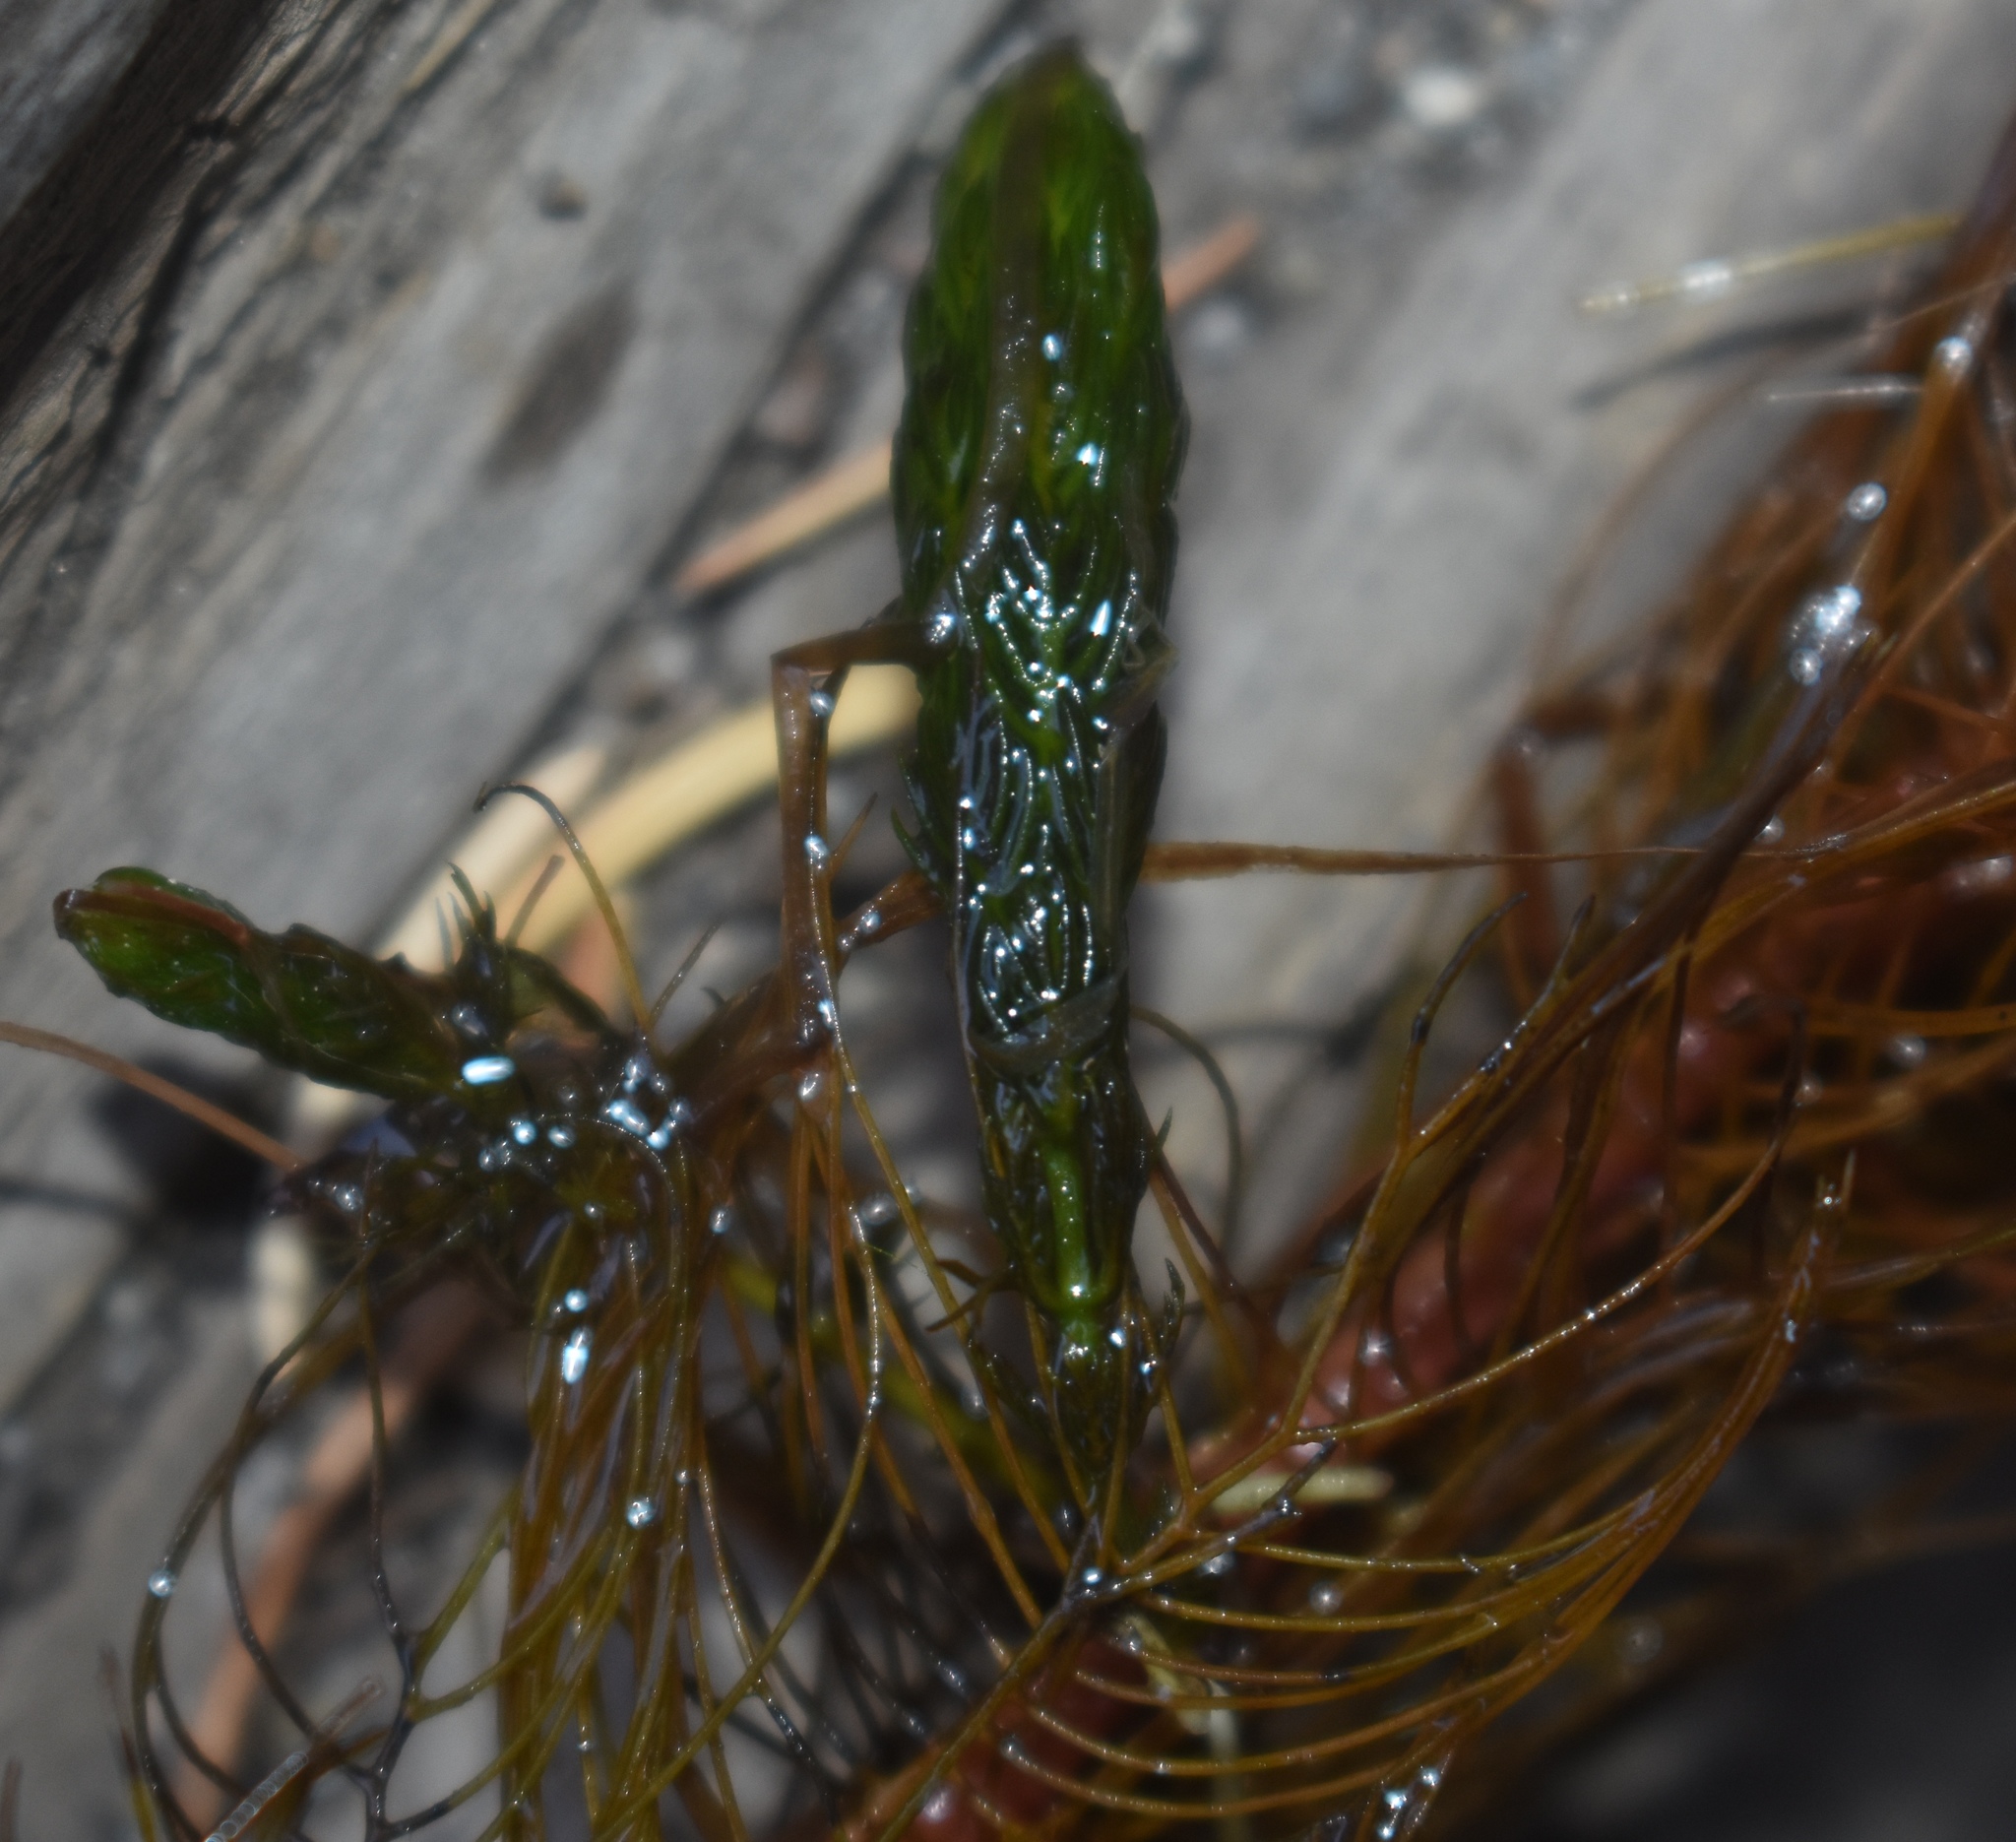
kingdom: Plantae
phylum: Tracheophyta
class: Magnoliopsida
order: Saxifragales
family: Haloragaceae
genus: Myriophyllum
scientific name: Myriophyllum verticillatum
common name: Whorled water-milfoil
